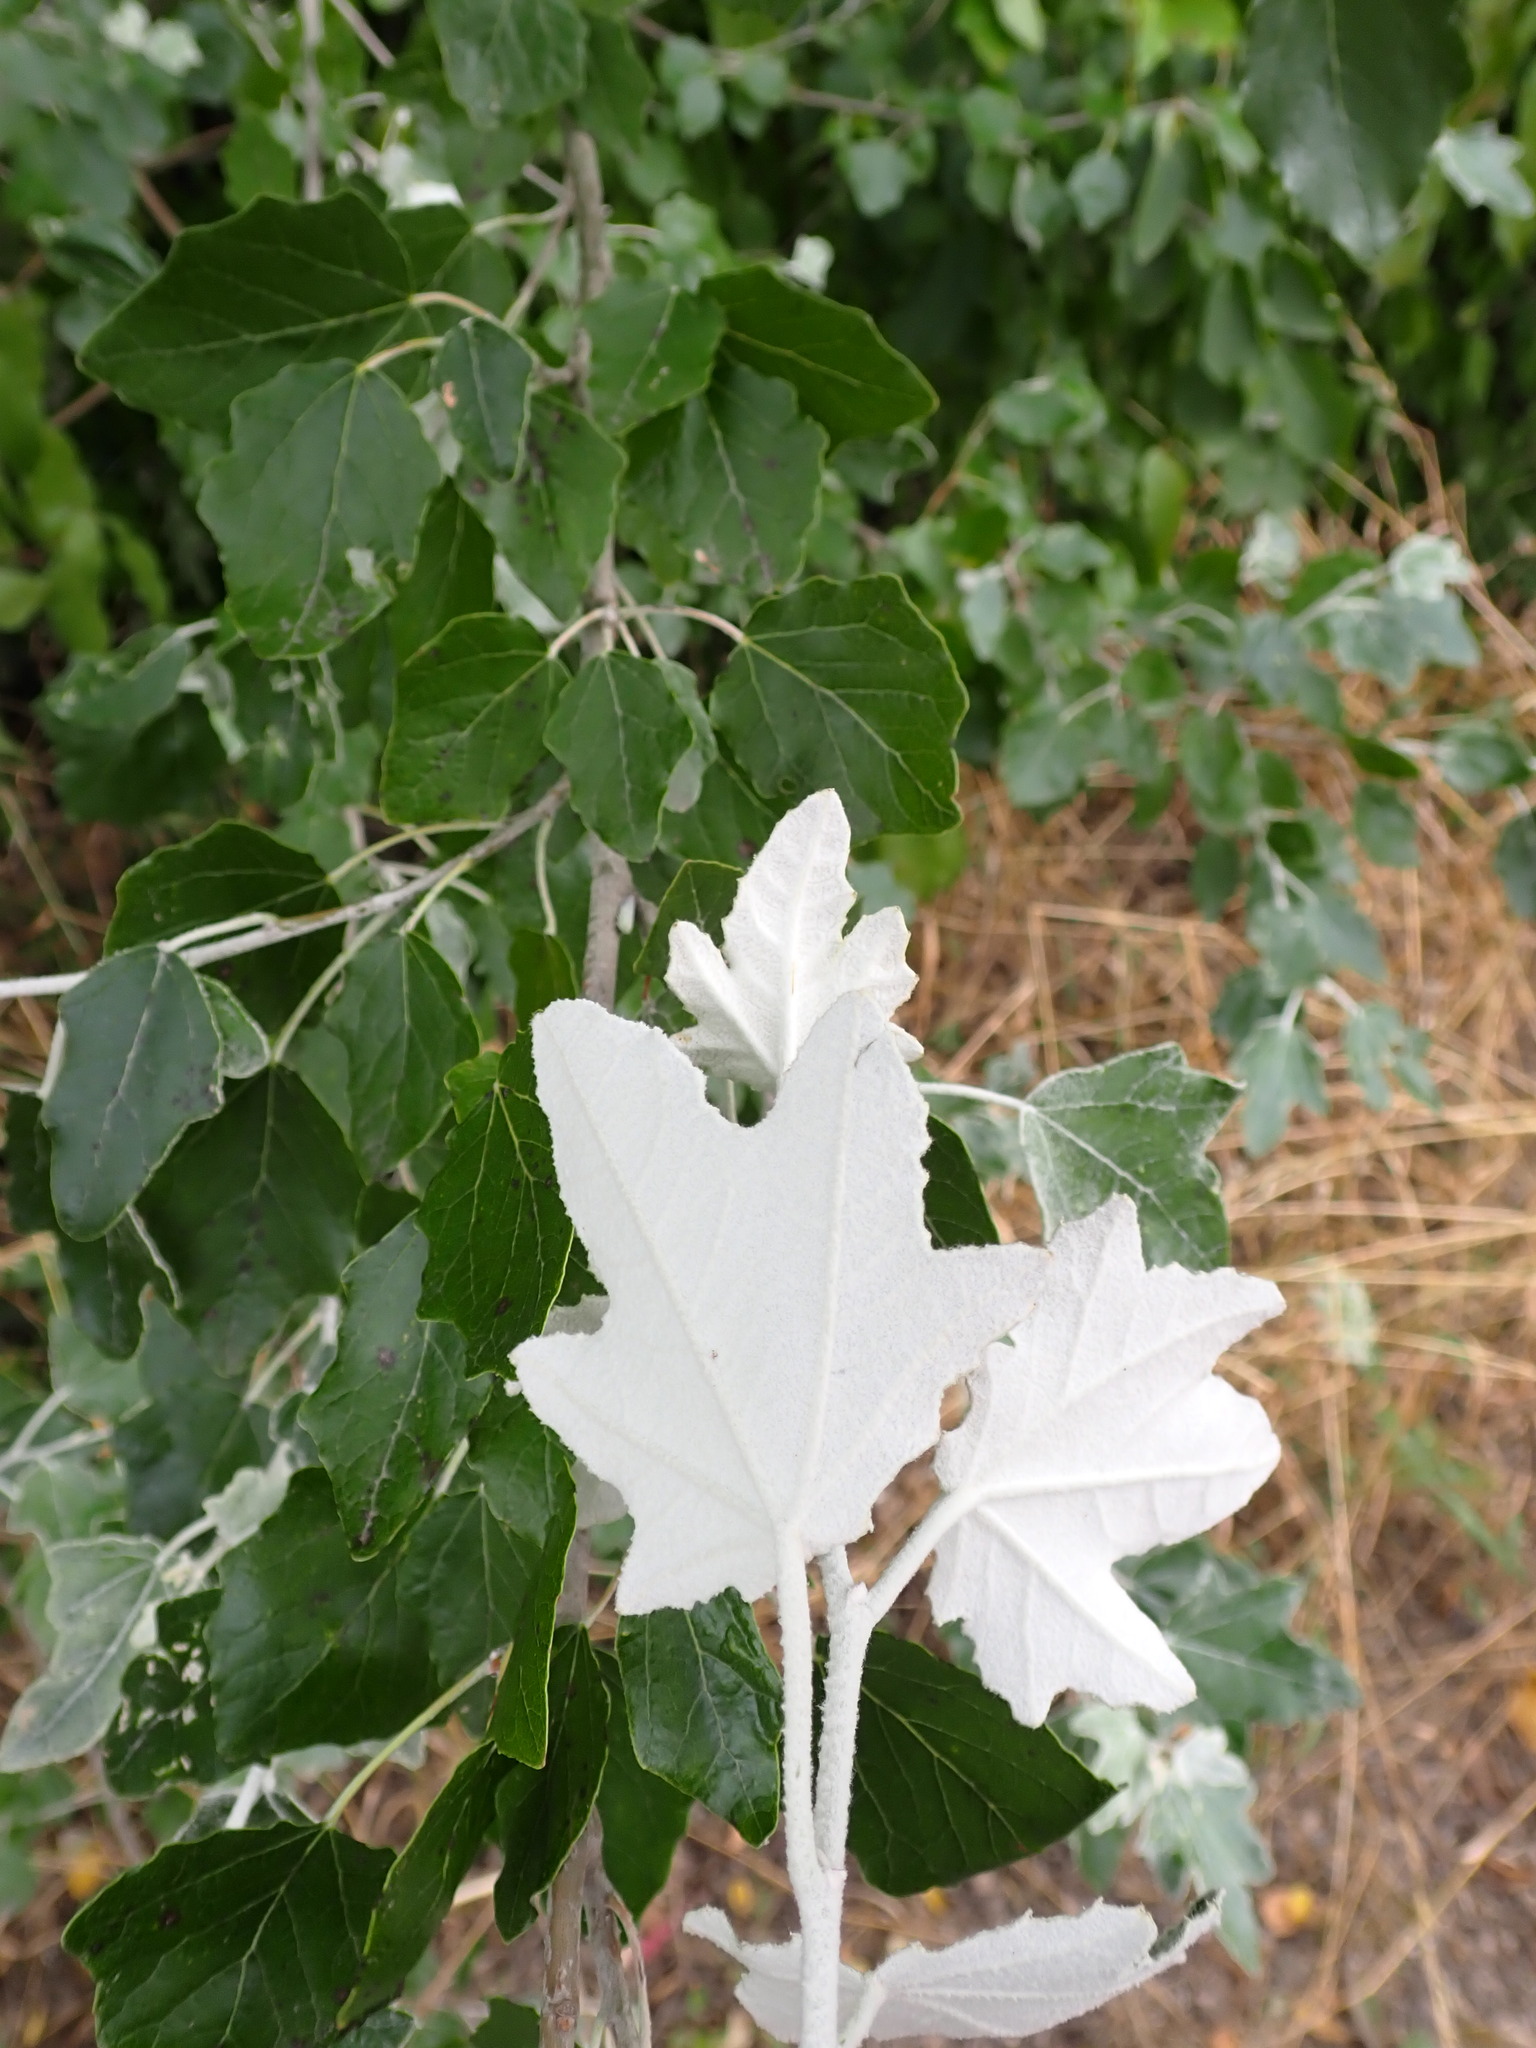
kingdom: Plantae
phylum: Tracheophyta
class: Magnoliopsida
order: Malpighiales
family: Salicaceae
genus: Populus
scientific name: Populus alba
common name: White poplar
